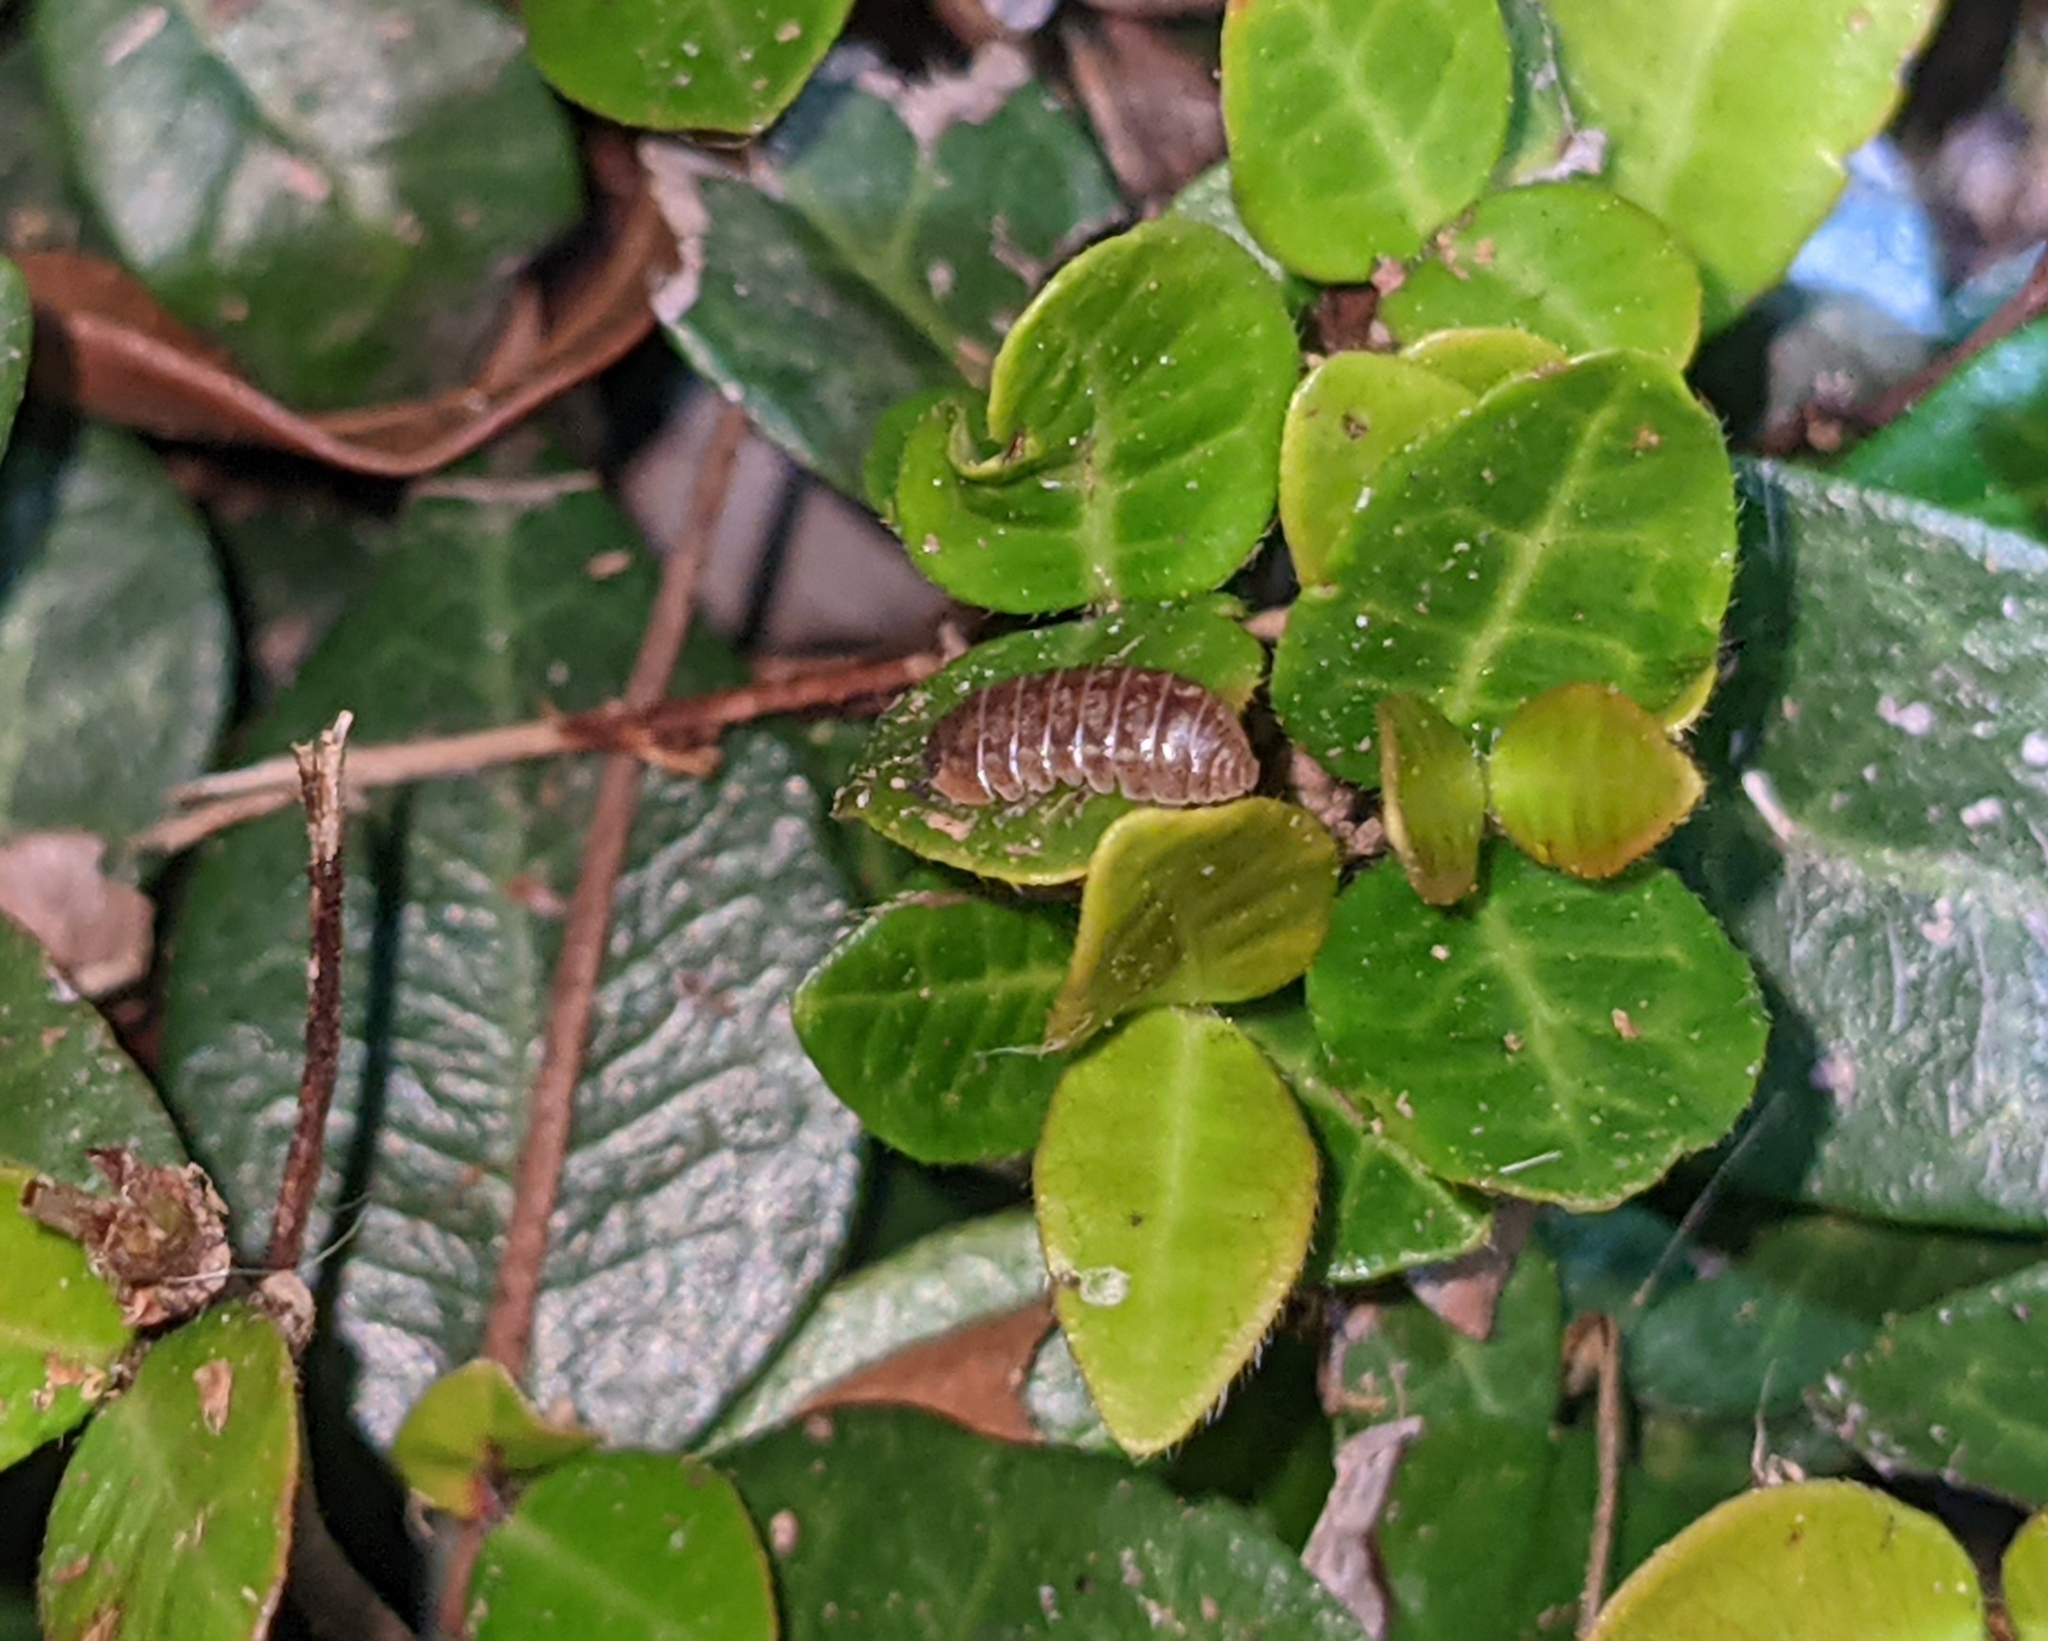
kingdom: Animalia
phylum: Arthropoda
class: Malacostraca
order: Isopoda
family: Armadillidiidae
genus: Armadillidium
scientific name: Armadillidium vulgare
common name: Common pill woodlouse
